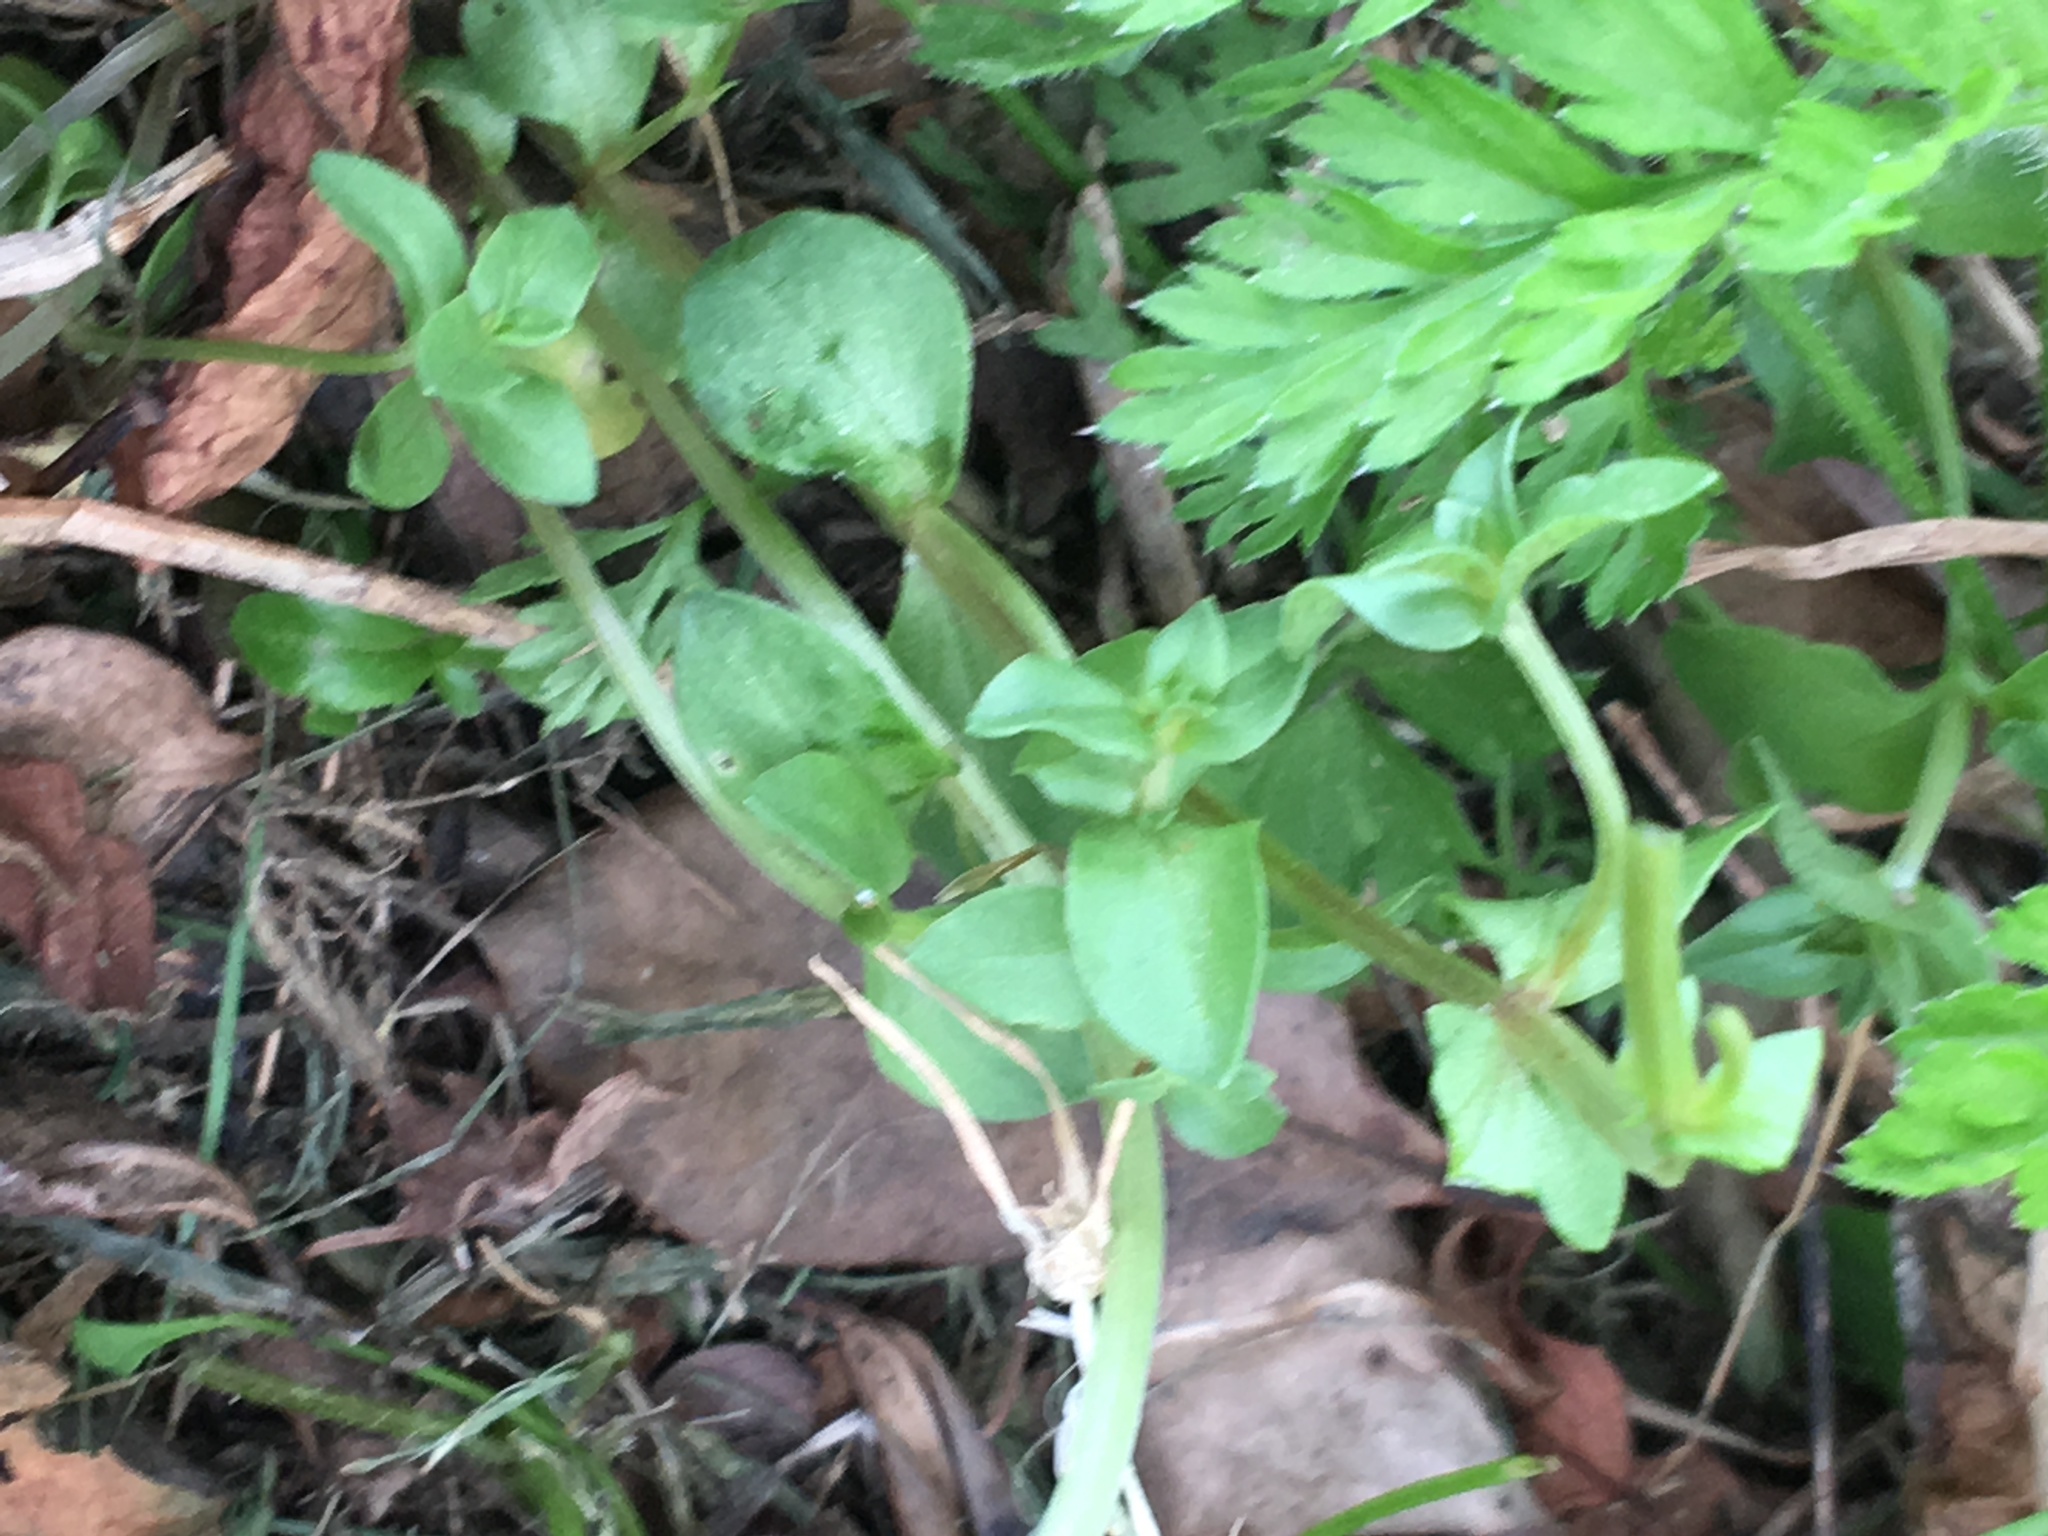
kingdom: Plantae
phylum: Tracheophyta
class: Magnoliopsida
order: Ericales
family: Primulaceae
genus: Lysimachia
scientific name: Lysimachia arvensis
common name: Scarlet pimpernel
